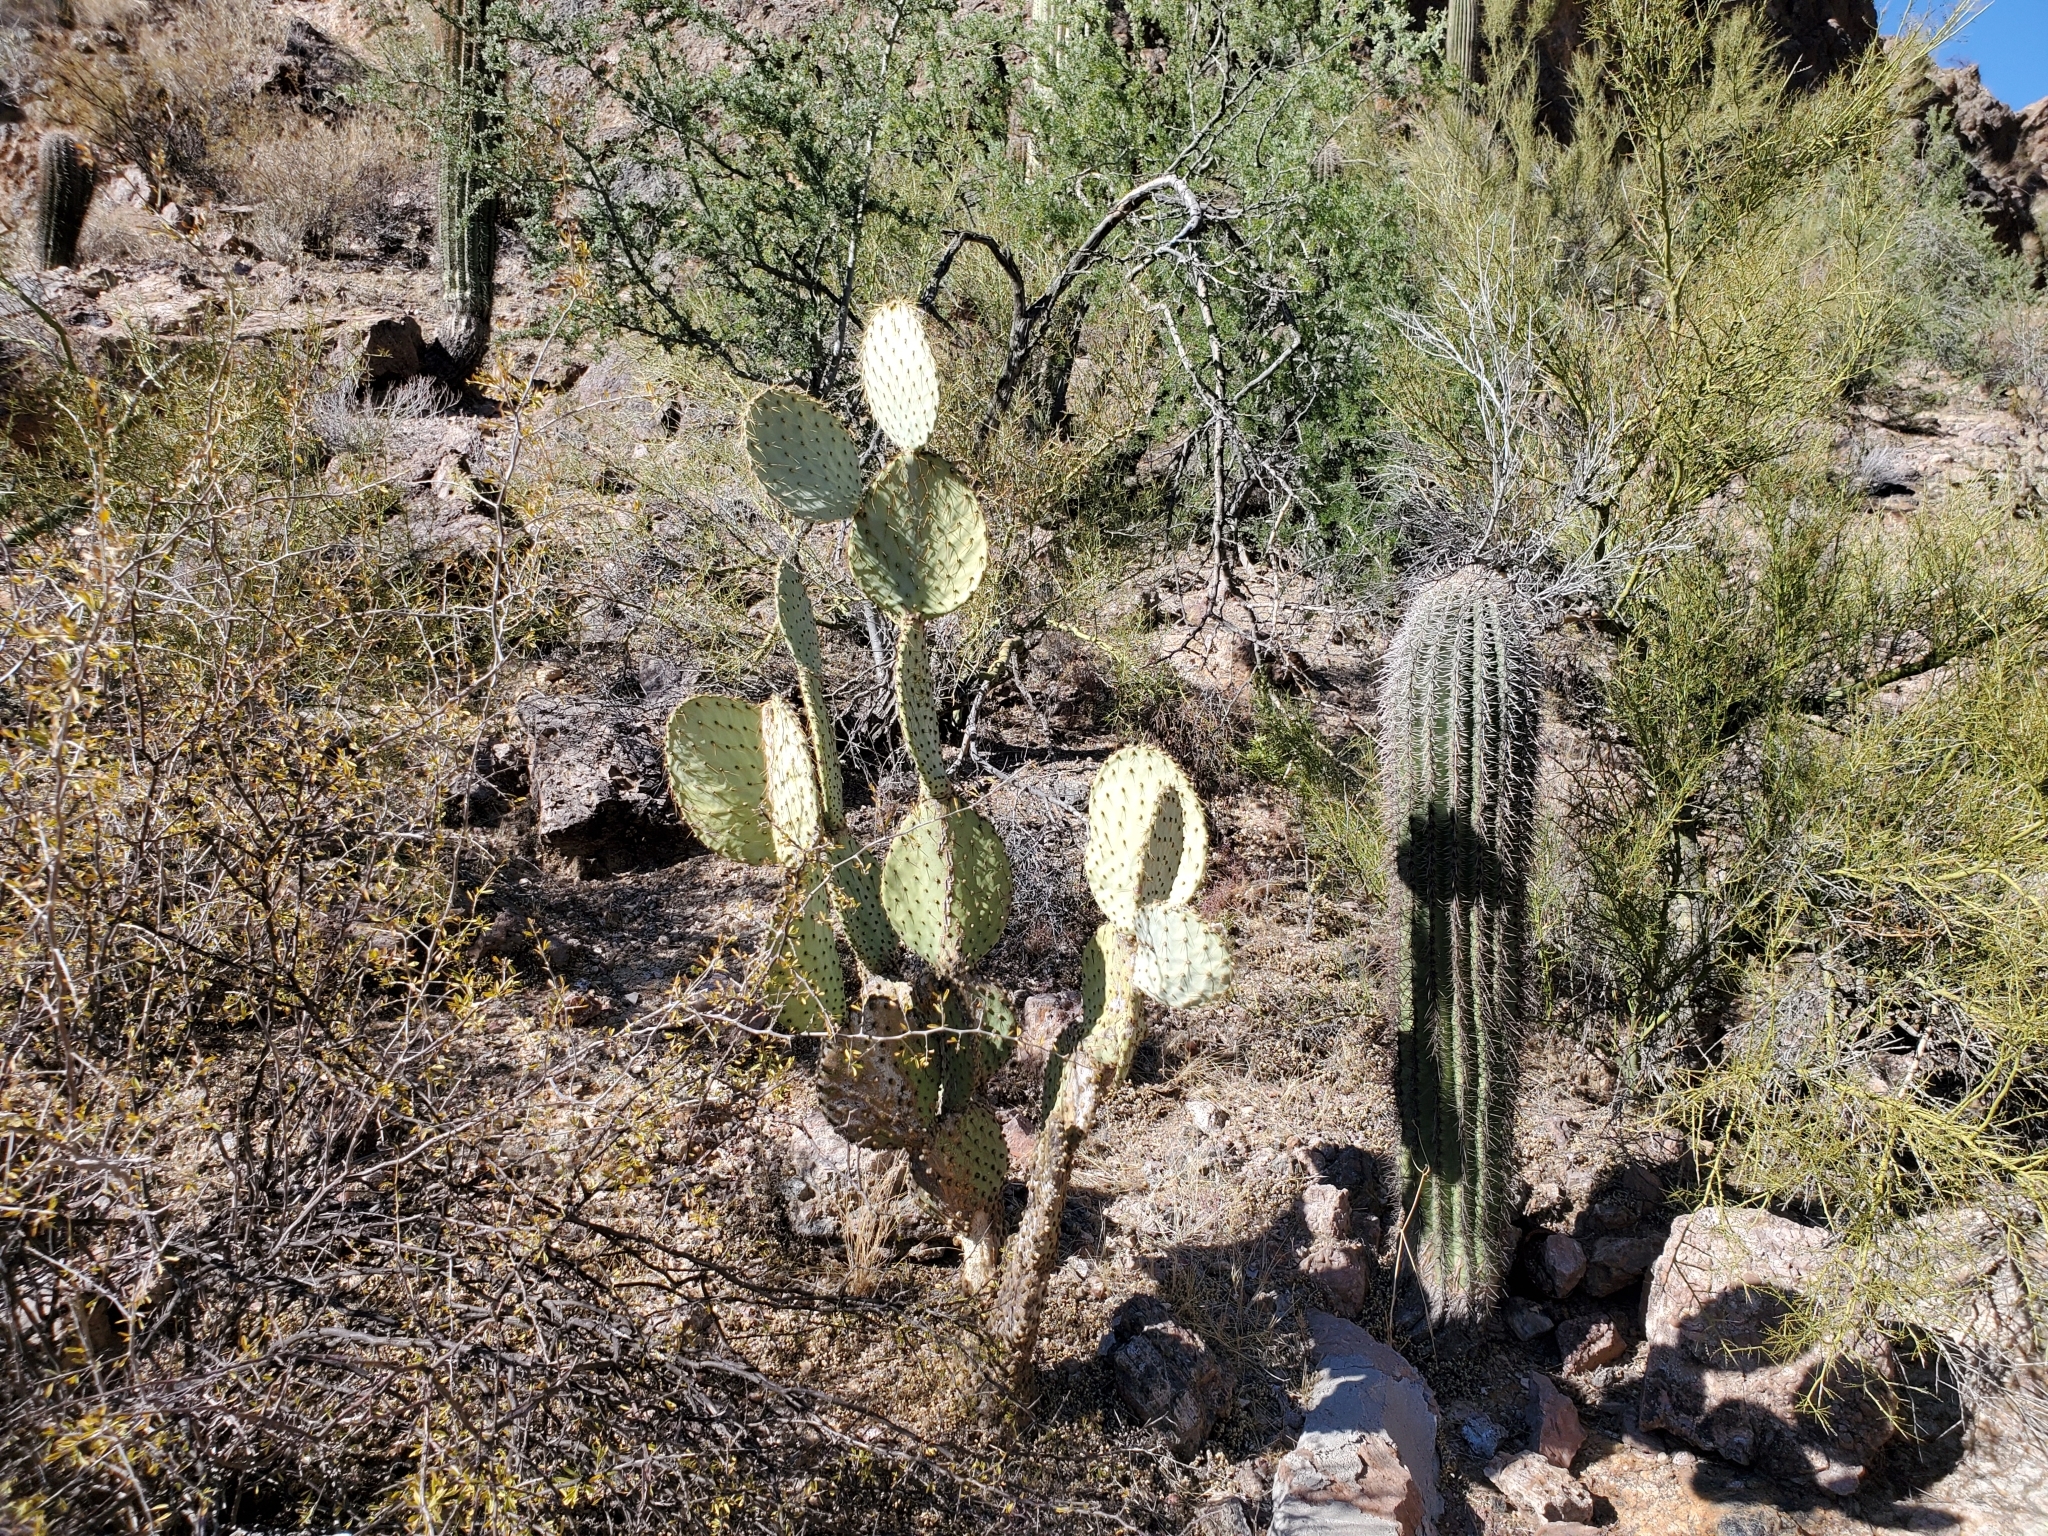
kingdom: Plantae
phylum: Tracheophyta
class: Magnoliopsida
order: Caryophyllales
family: Cactaceae
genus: Opuntia
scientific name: Opuntia chlorotica
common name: Dollar-joint prickly-pear
